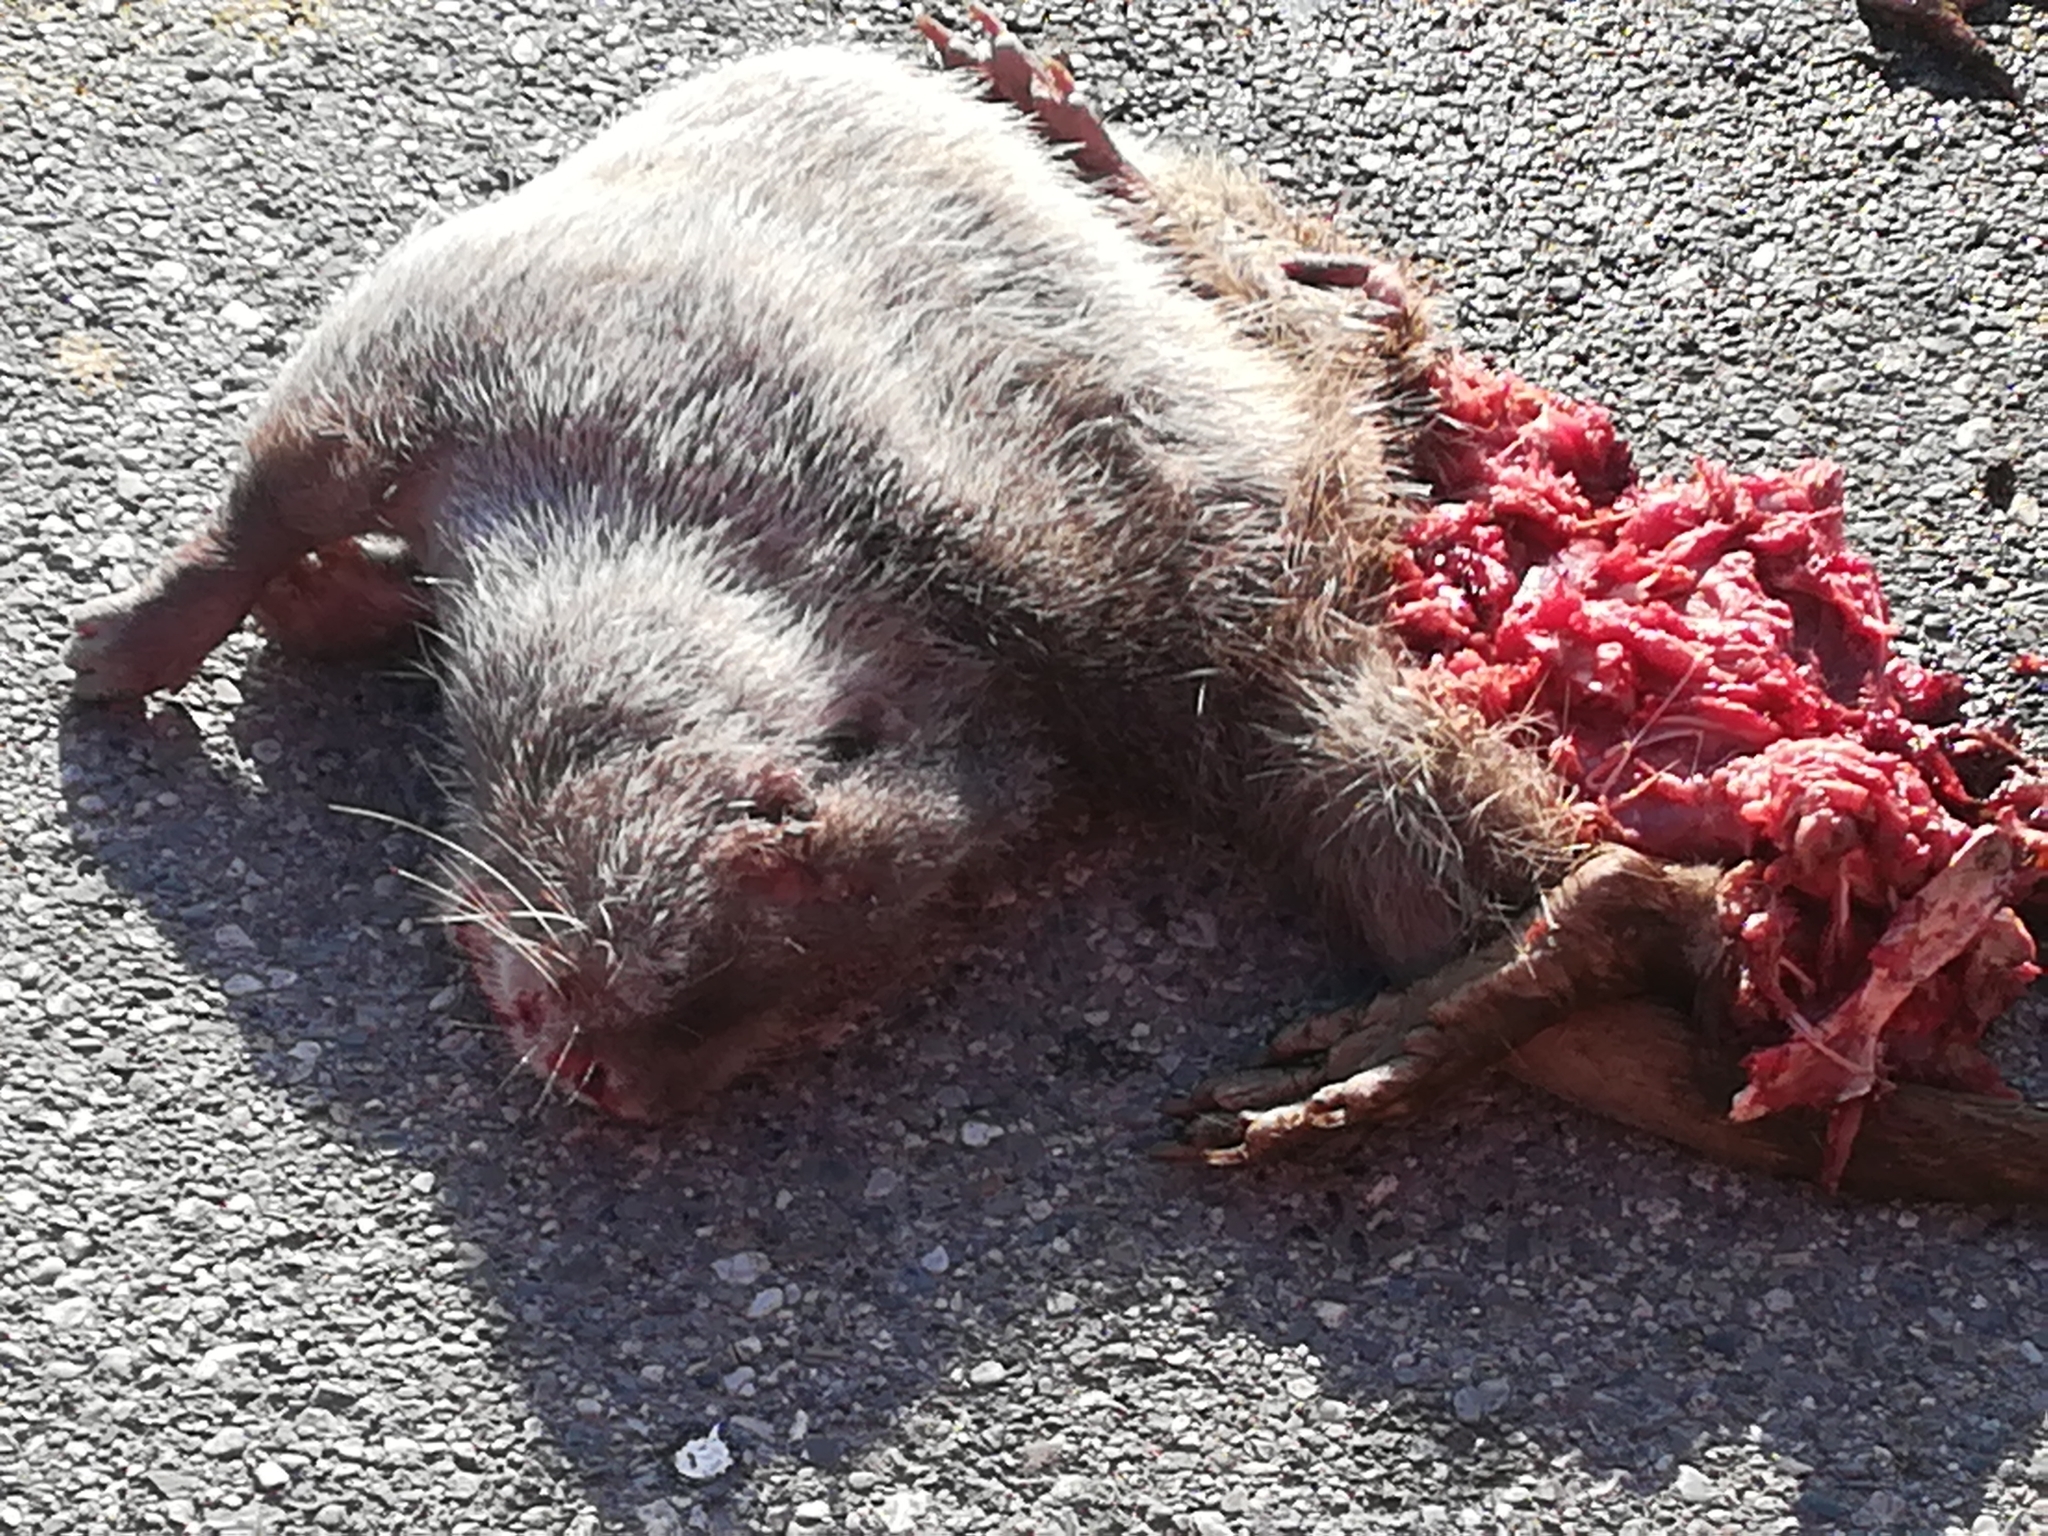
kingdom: Animalia
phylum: Chordata
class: Mammalia
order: Rodentia
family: Myocastoridae
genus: Myocastor
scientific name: Myocastor coypus
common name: Coypu
